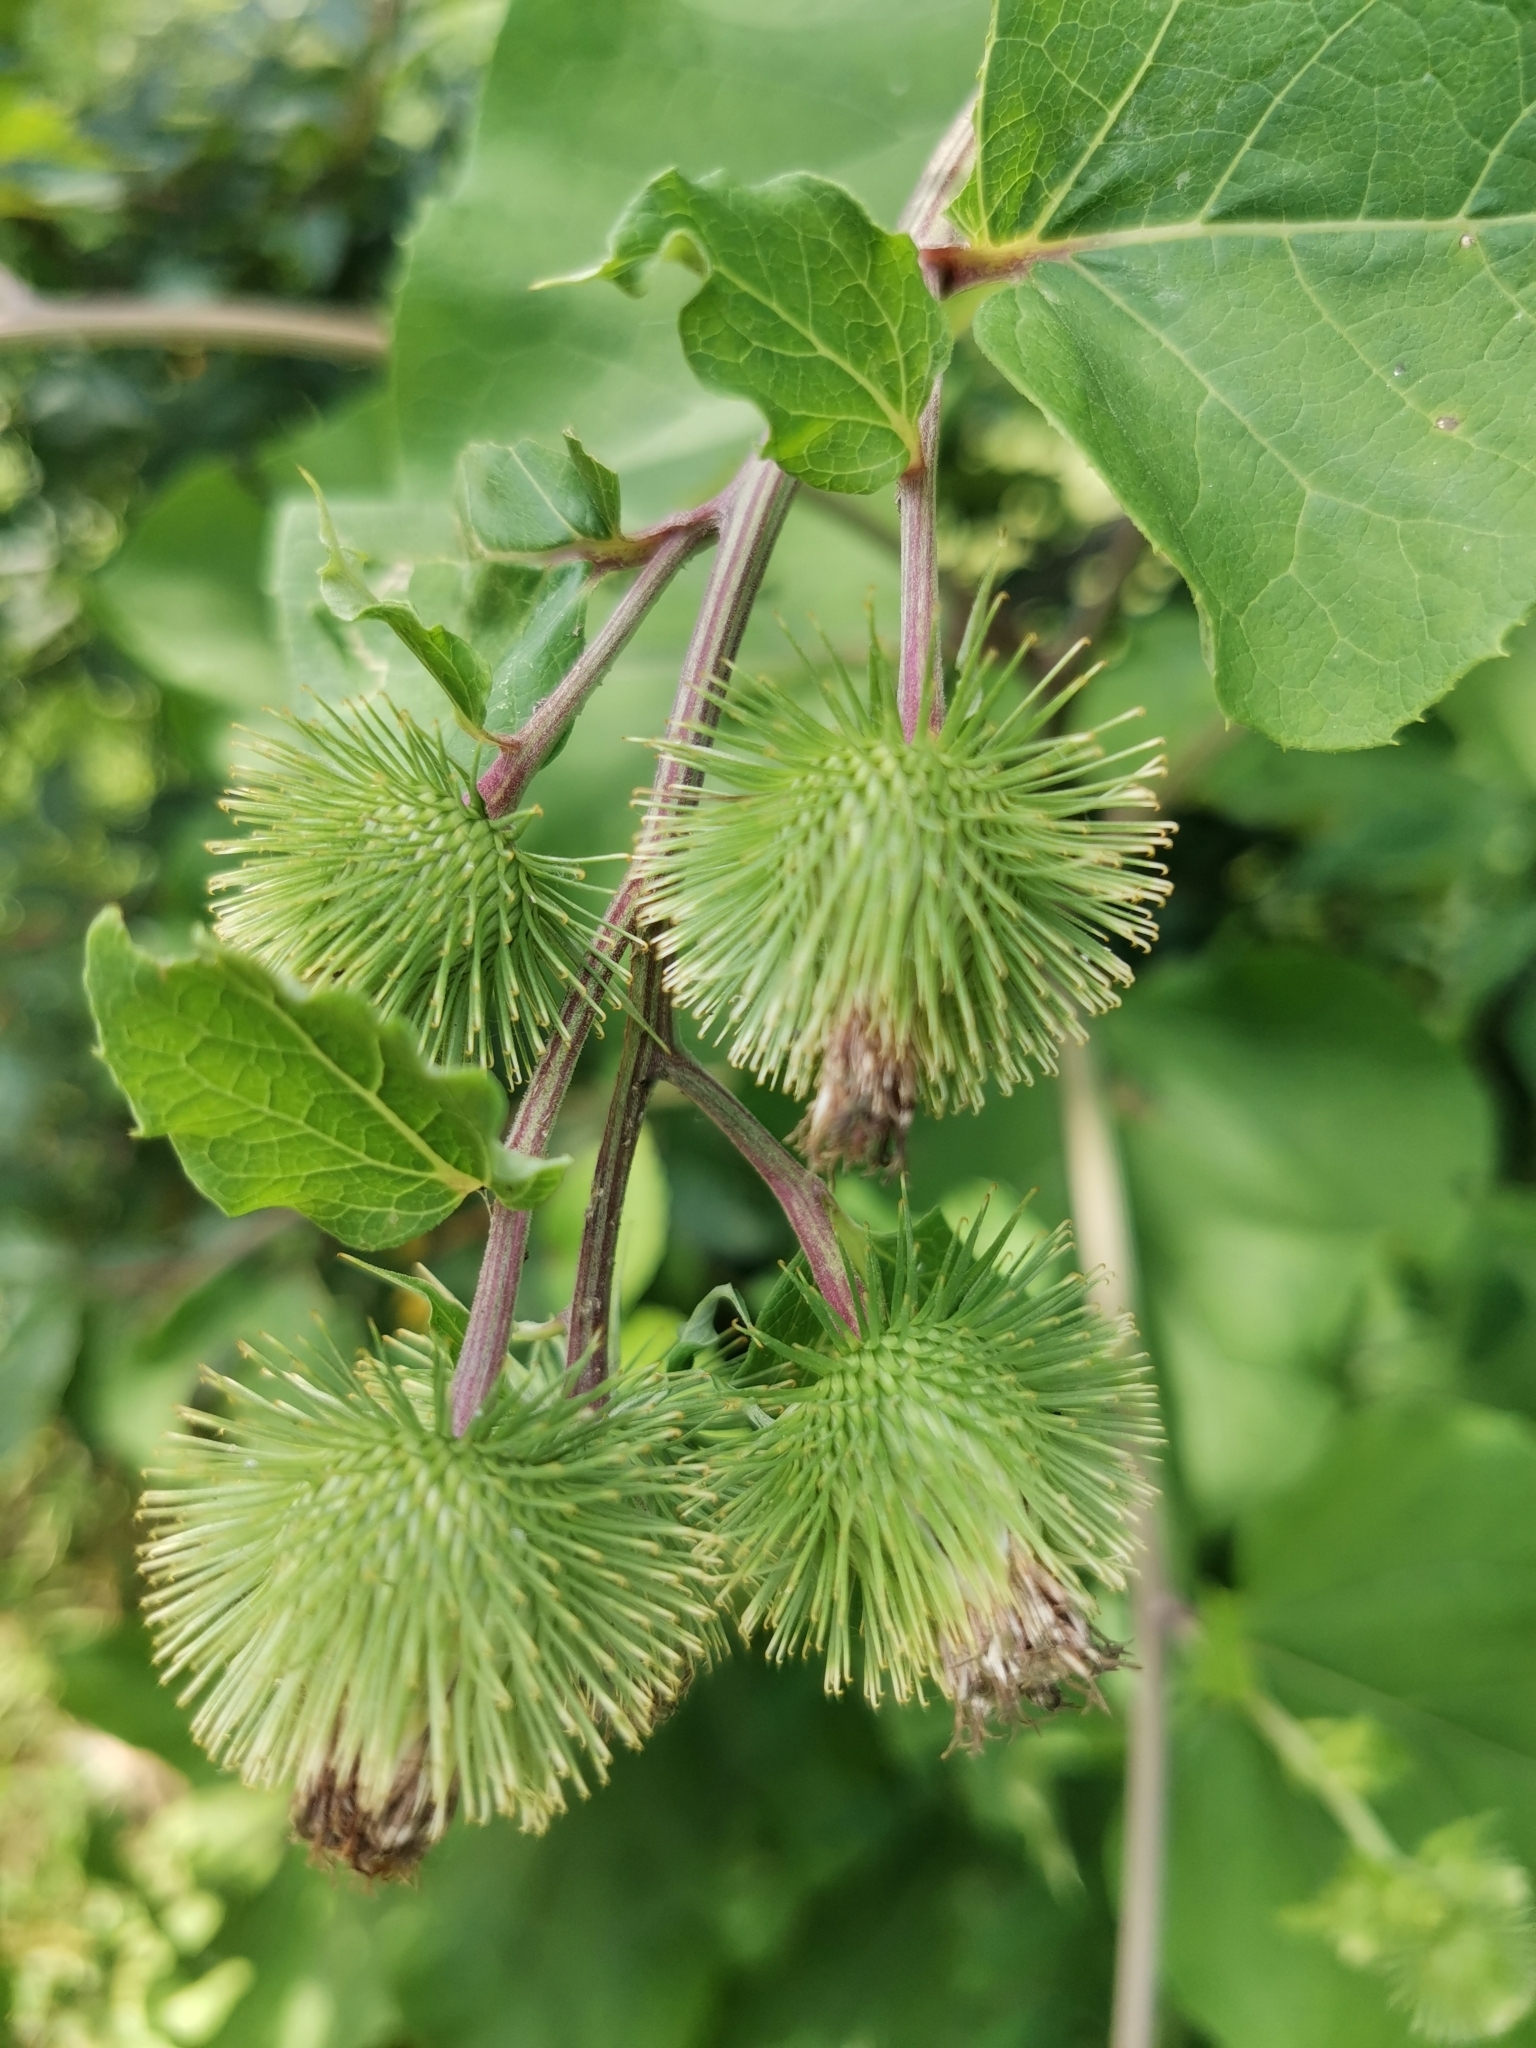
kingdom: Plantae
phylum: Tracheophyta
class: Magnoliopsida
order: Asterales
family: Asteraceae
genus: Arctium
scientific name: Arctium lappa
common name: Greater burdock
